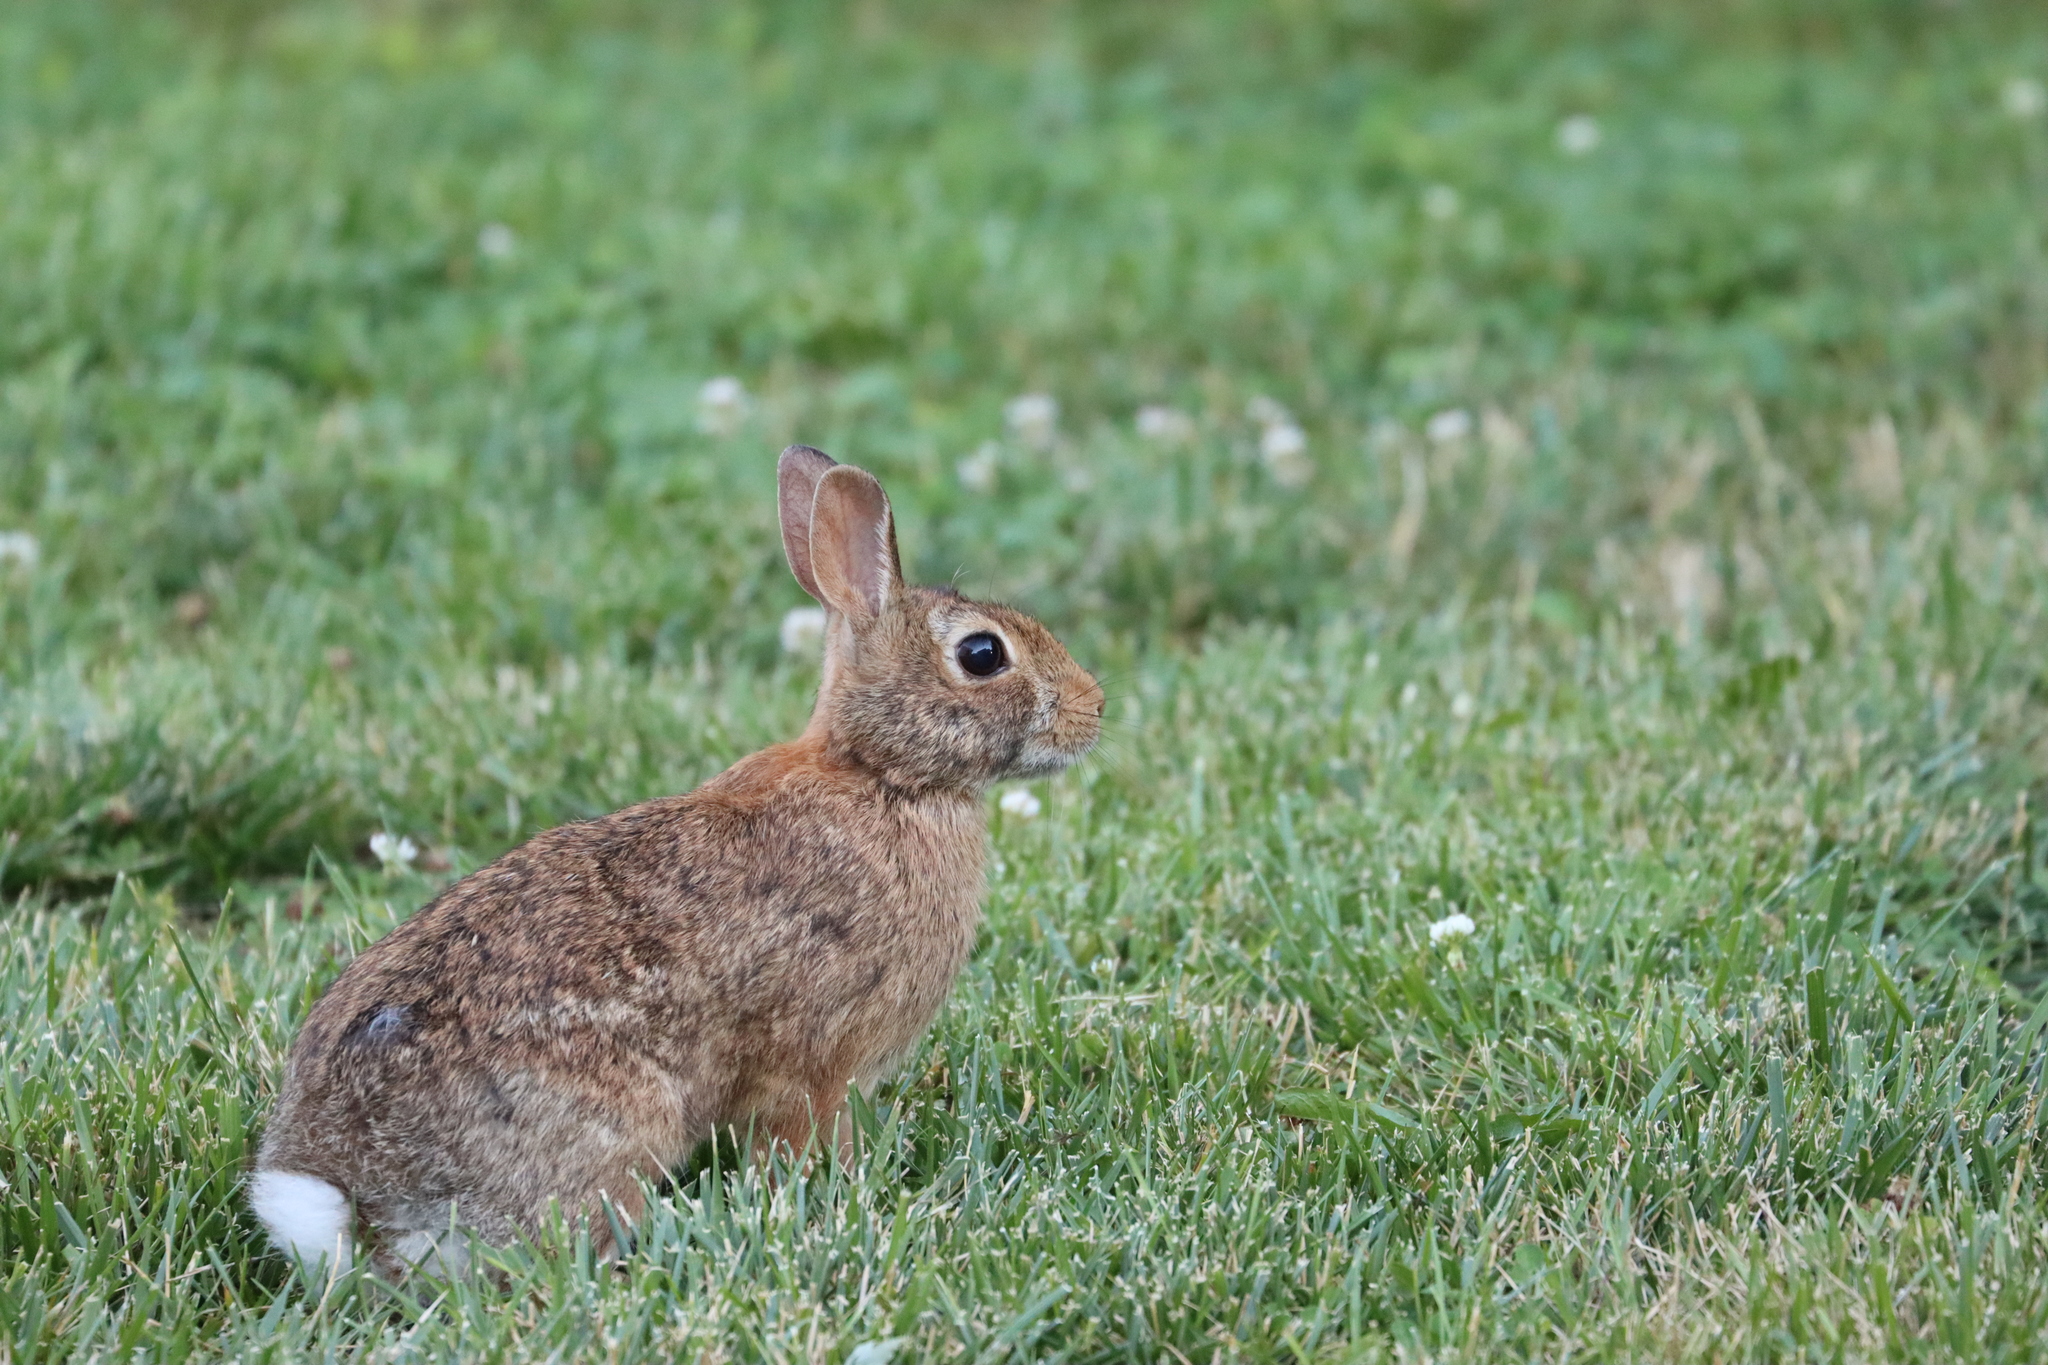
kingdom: Animalia
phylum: Chordata
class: Mammalia
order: Lagomorpha
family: Leporidae
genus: Sylvilagus
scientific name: Sylvilagus floridanus
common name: Eastern cottontail
